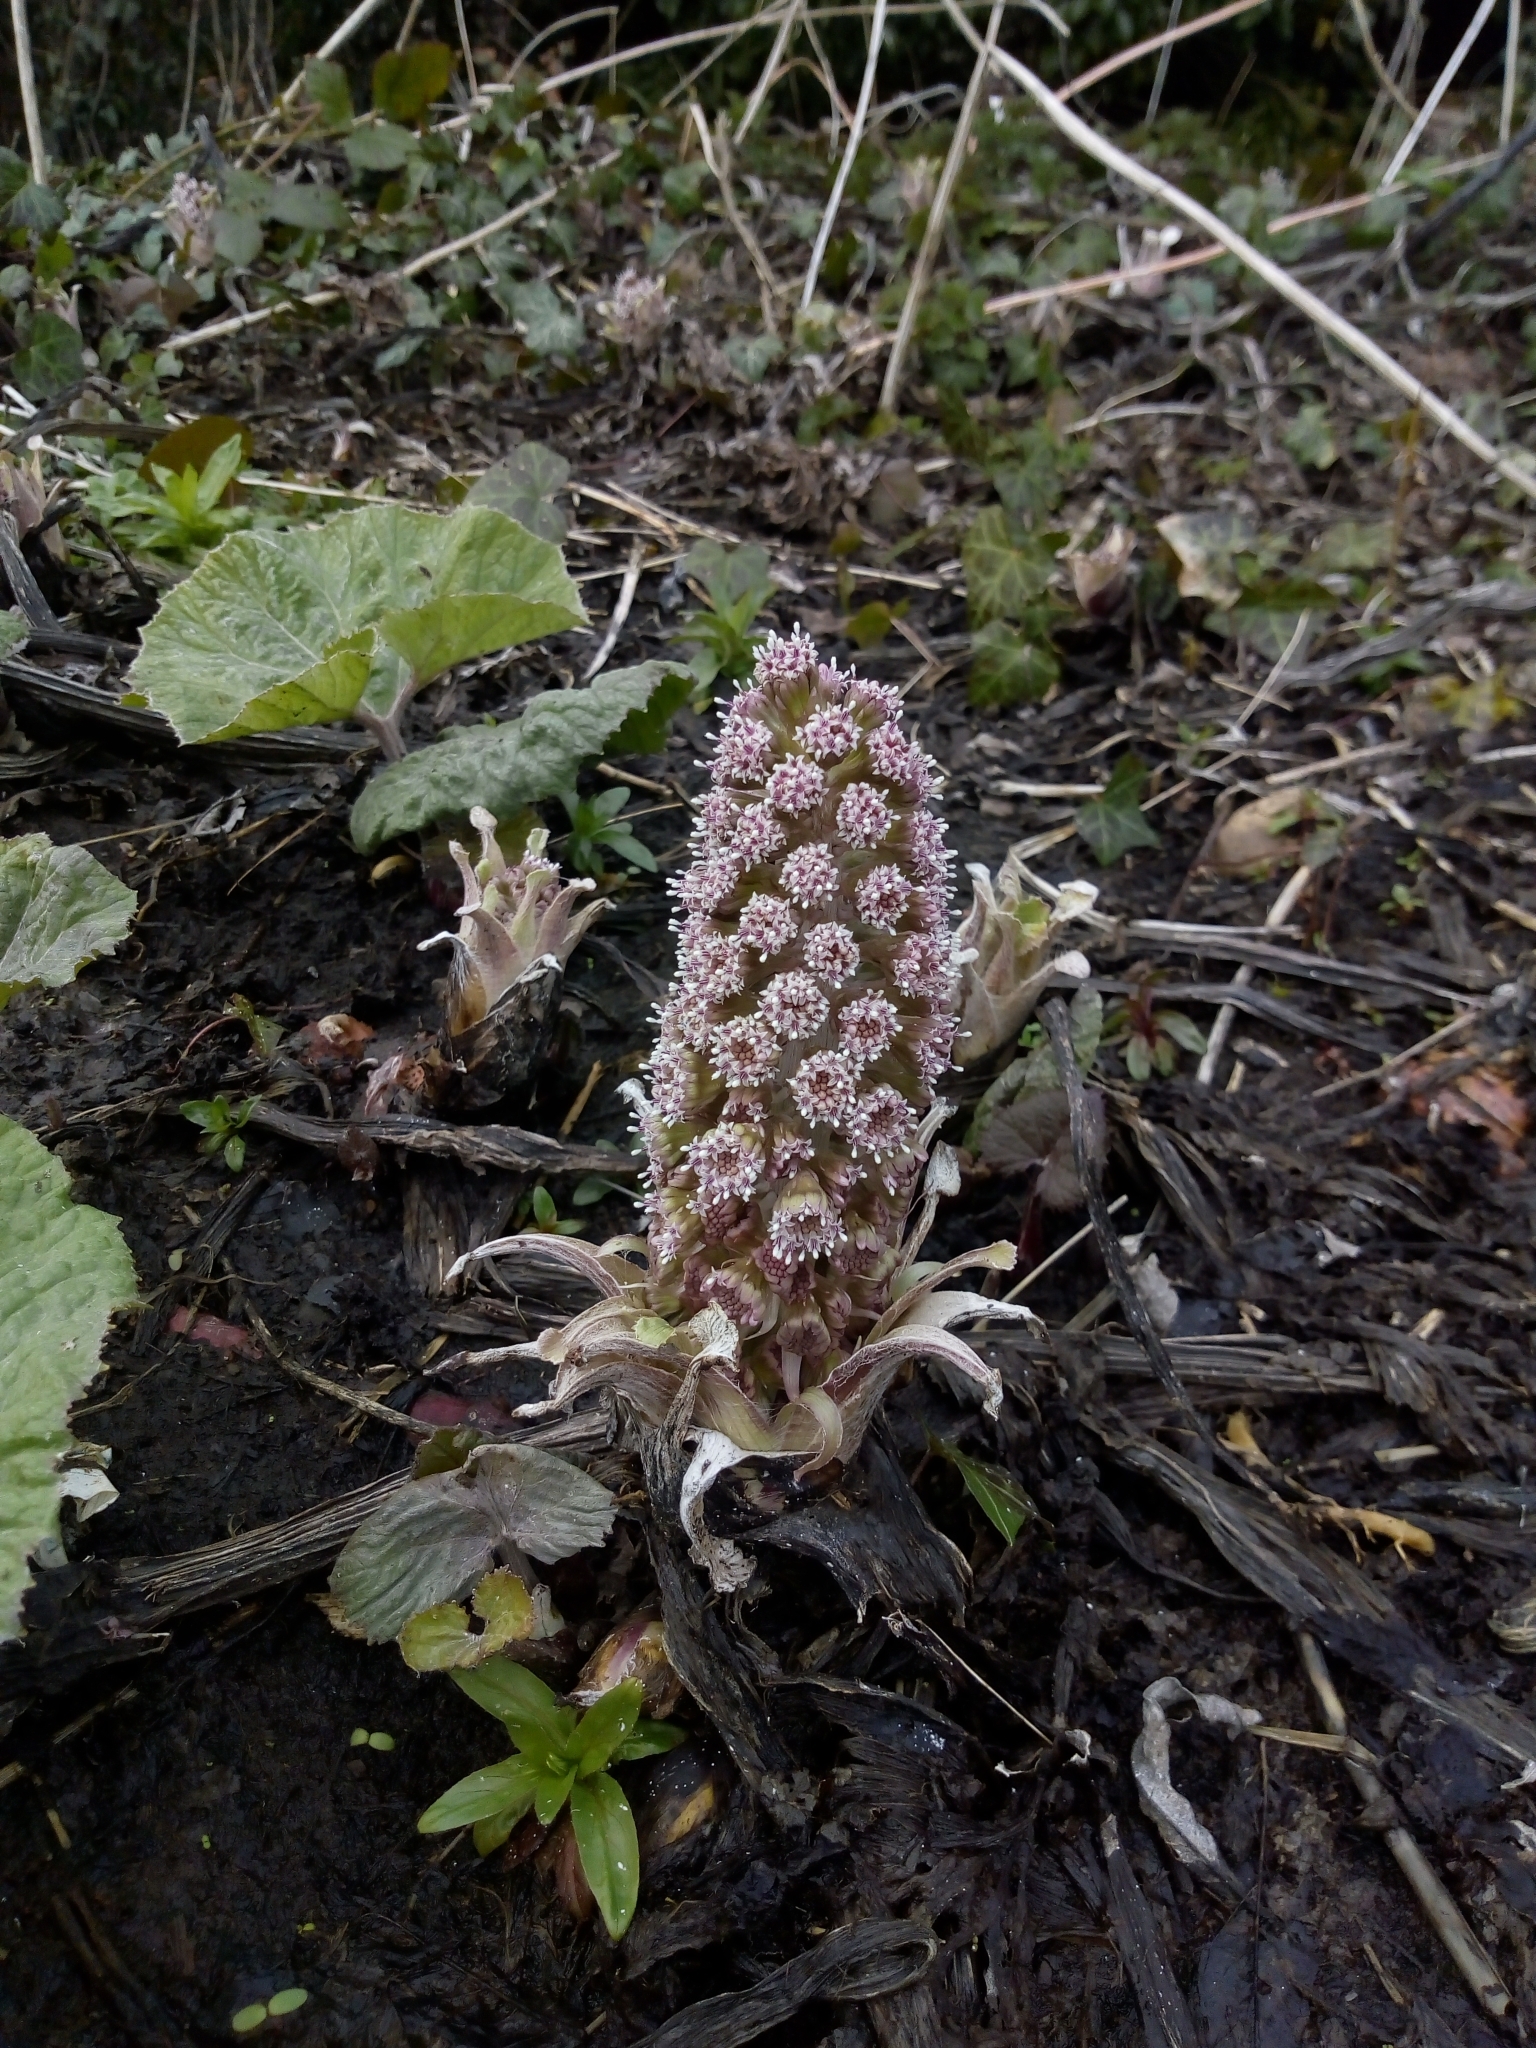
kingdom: Plantae
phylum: Tracheophyta
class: Magnoliopsida
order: Asterales
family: Asteraceae
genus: Petasites
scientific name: Petasites hybridus
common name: Butterbur
